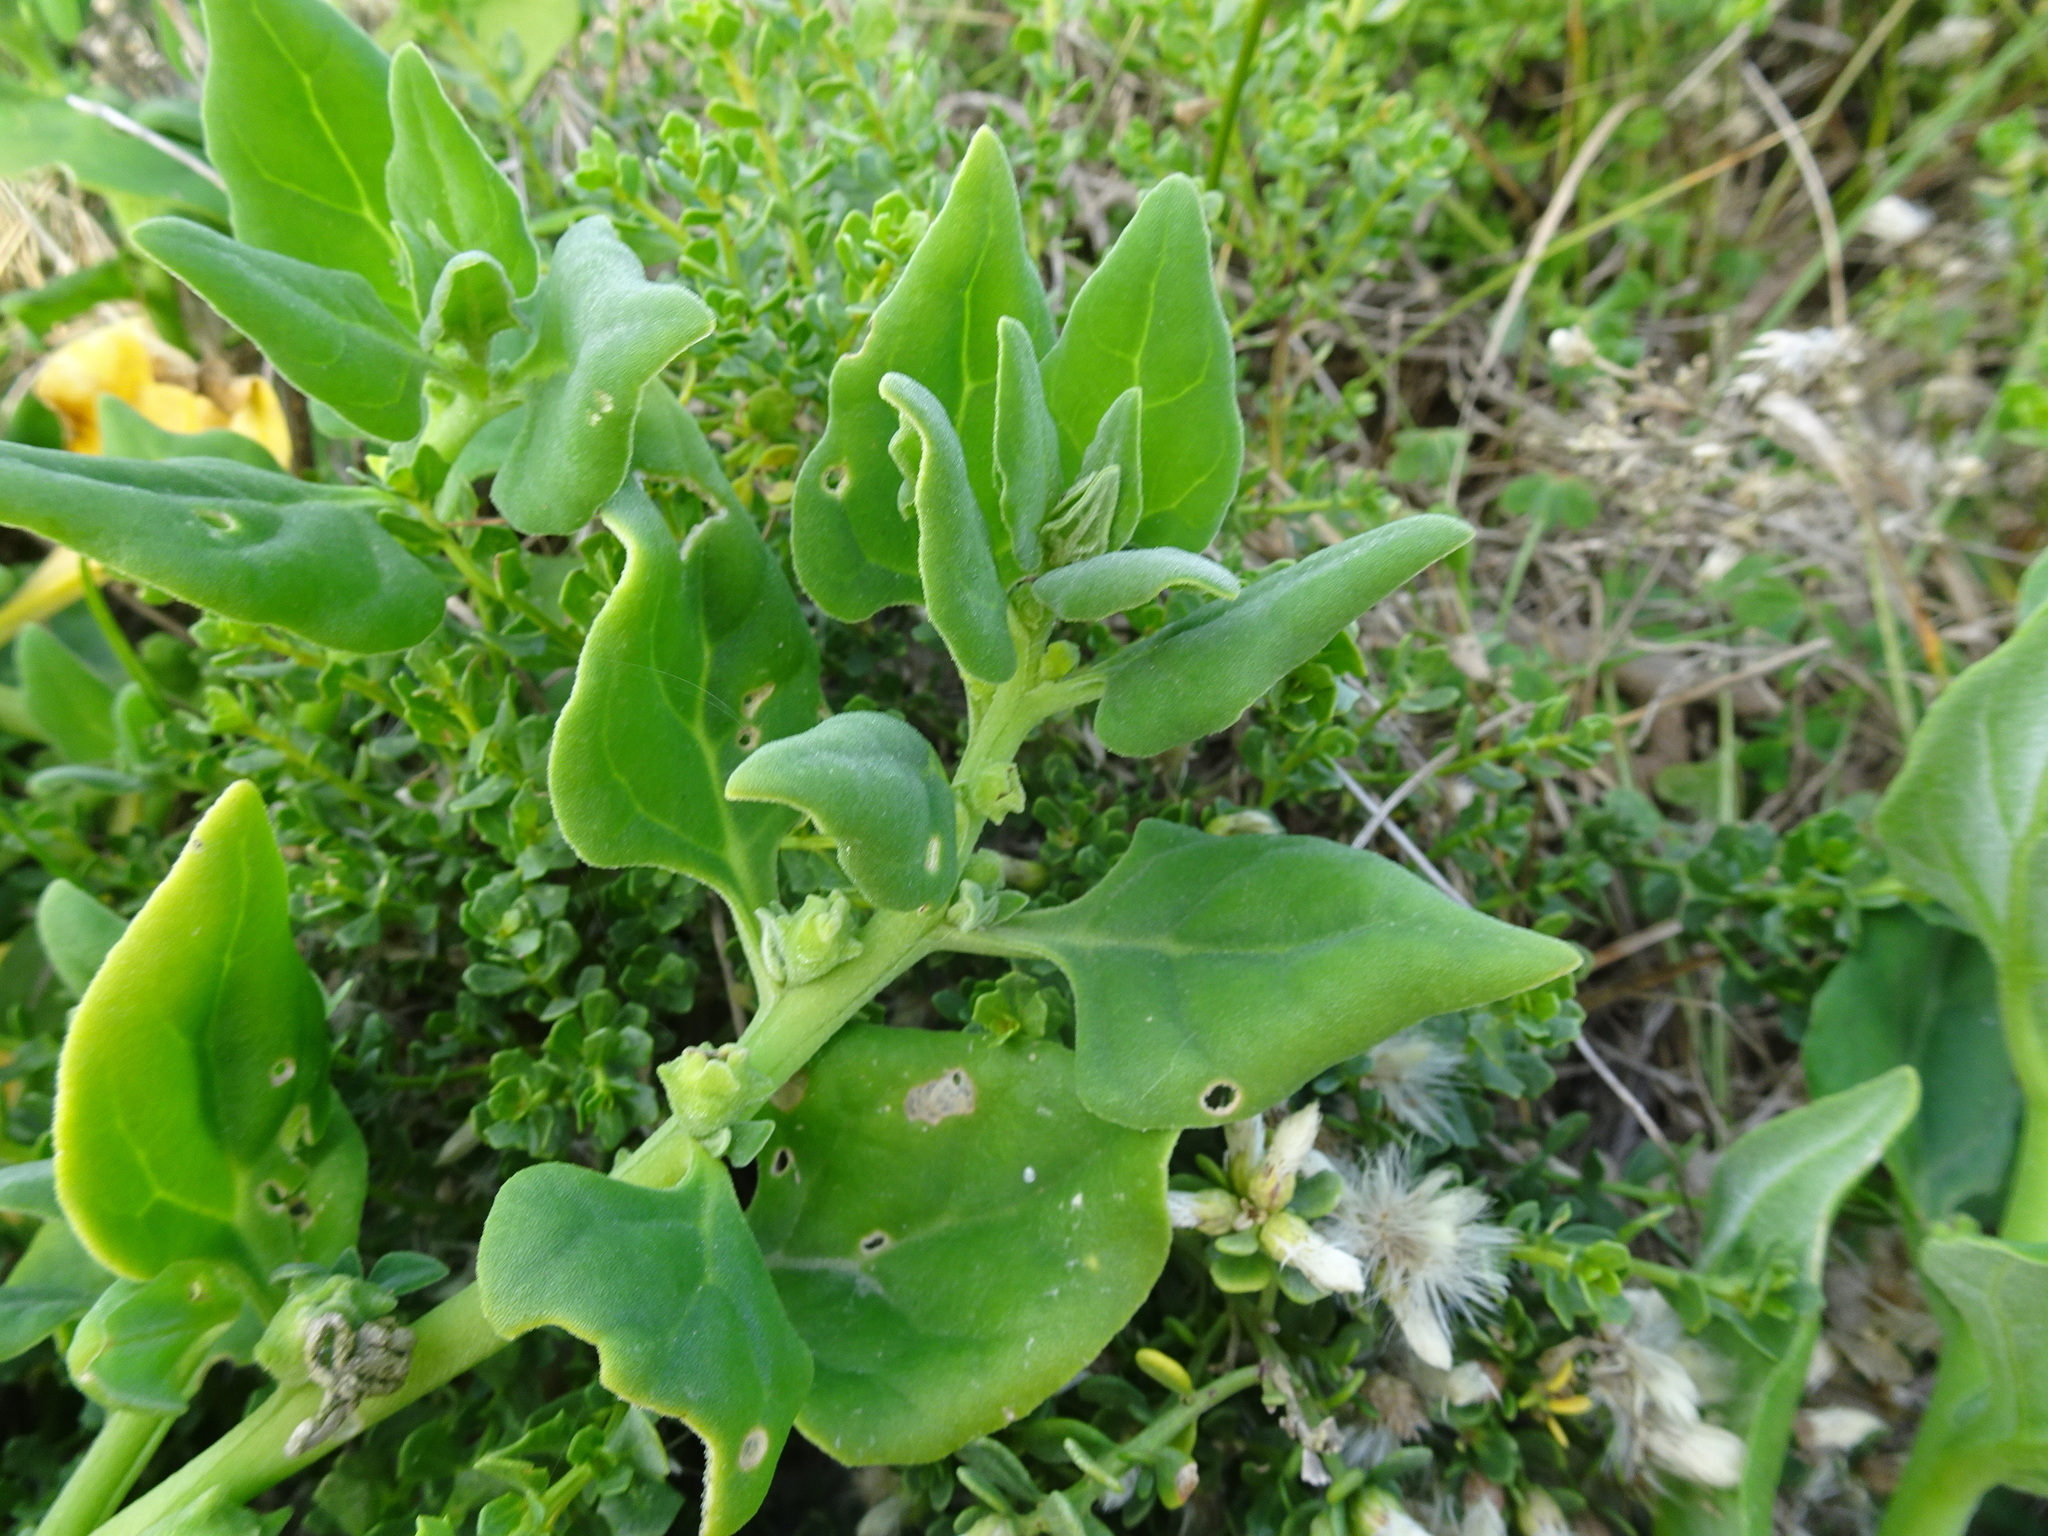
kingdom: Plantae
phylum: Tracheophyta
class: Magnoliopsida
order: Caryophyllales
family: Aizoaceae
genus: Tetragonia
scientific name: Tetragonia tetragonoides
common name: New zealand-spinach
